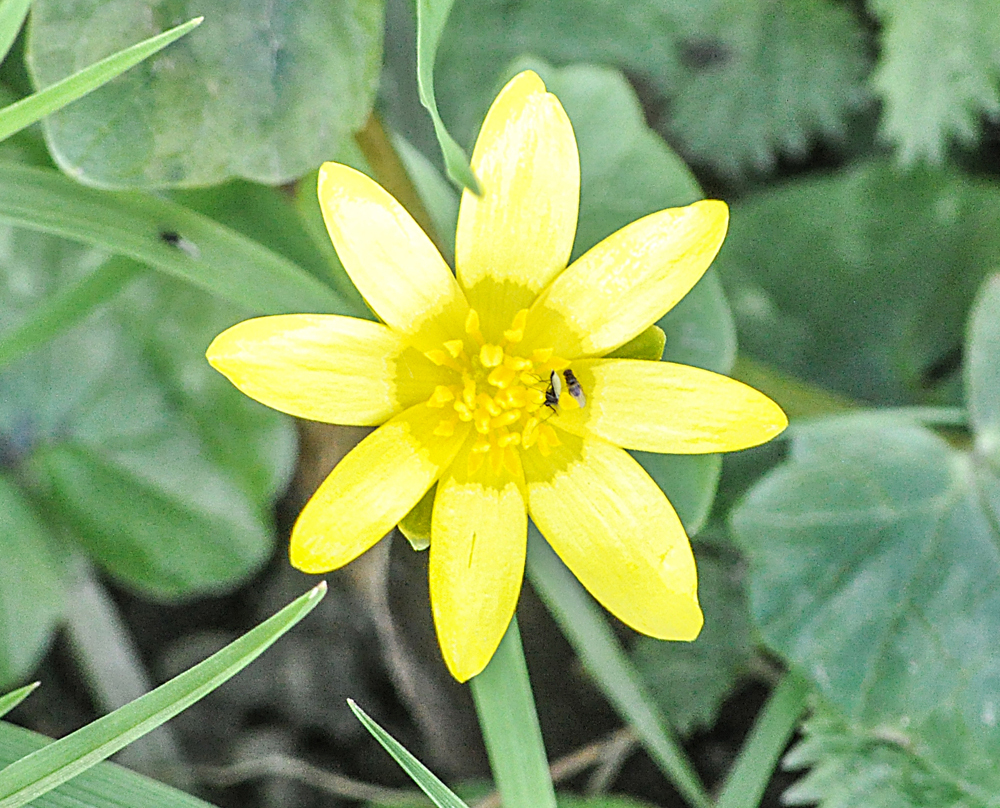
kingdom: Plantae
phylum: Tracheophyta
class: Magnoliopsida
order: Ranunculales
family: Ranunculaceae
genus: Ficaria
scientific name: Ficaria verna
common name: Lesser celandine
